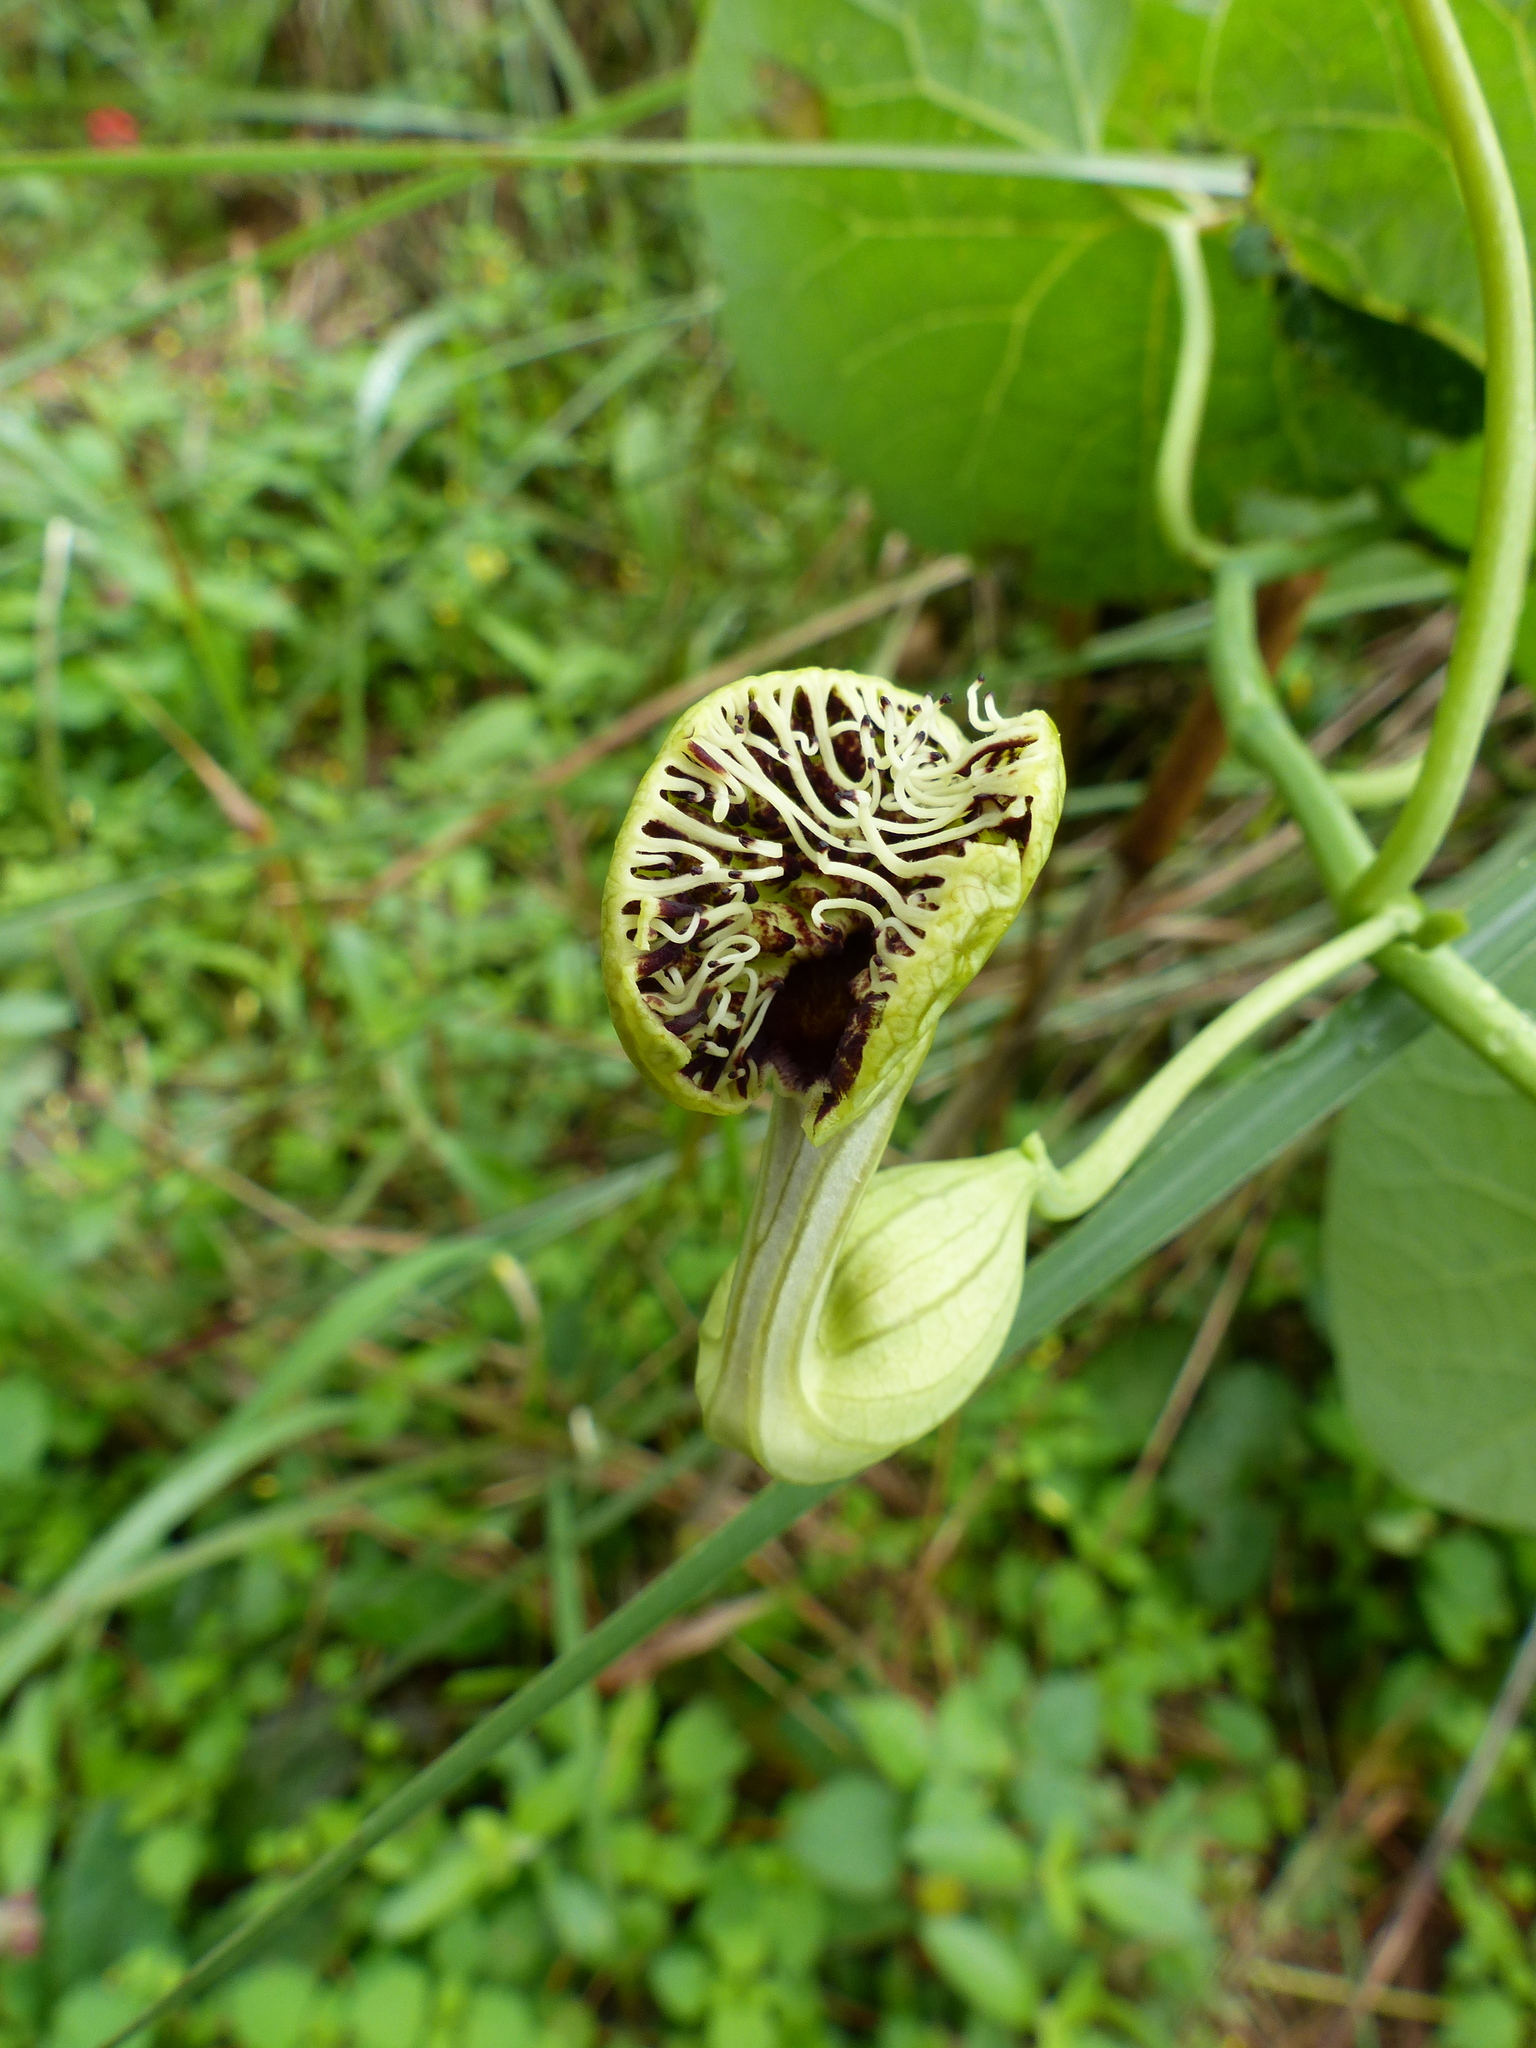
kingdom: Plantae
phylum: Tracheophyta
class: Magnoliopsida
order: Piperales
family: Aristolochiaceae
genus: Aristolochia
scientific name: Aristolochia fimbriata
